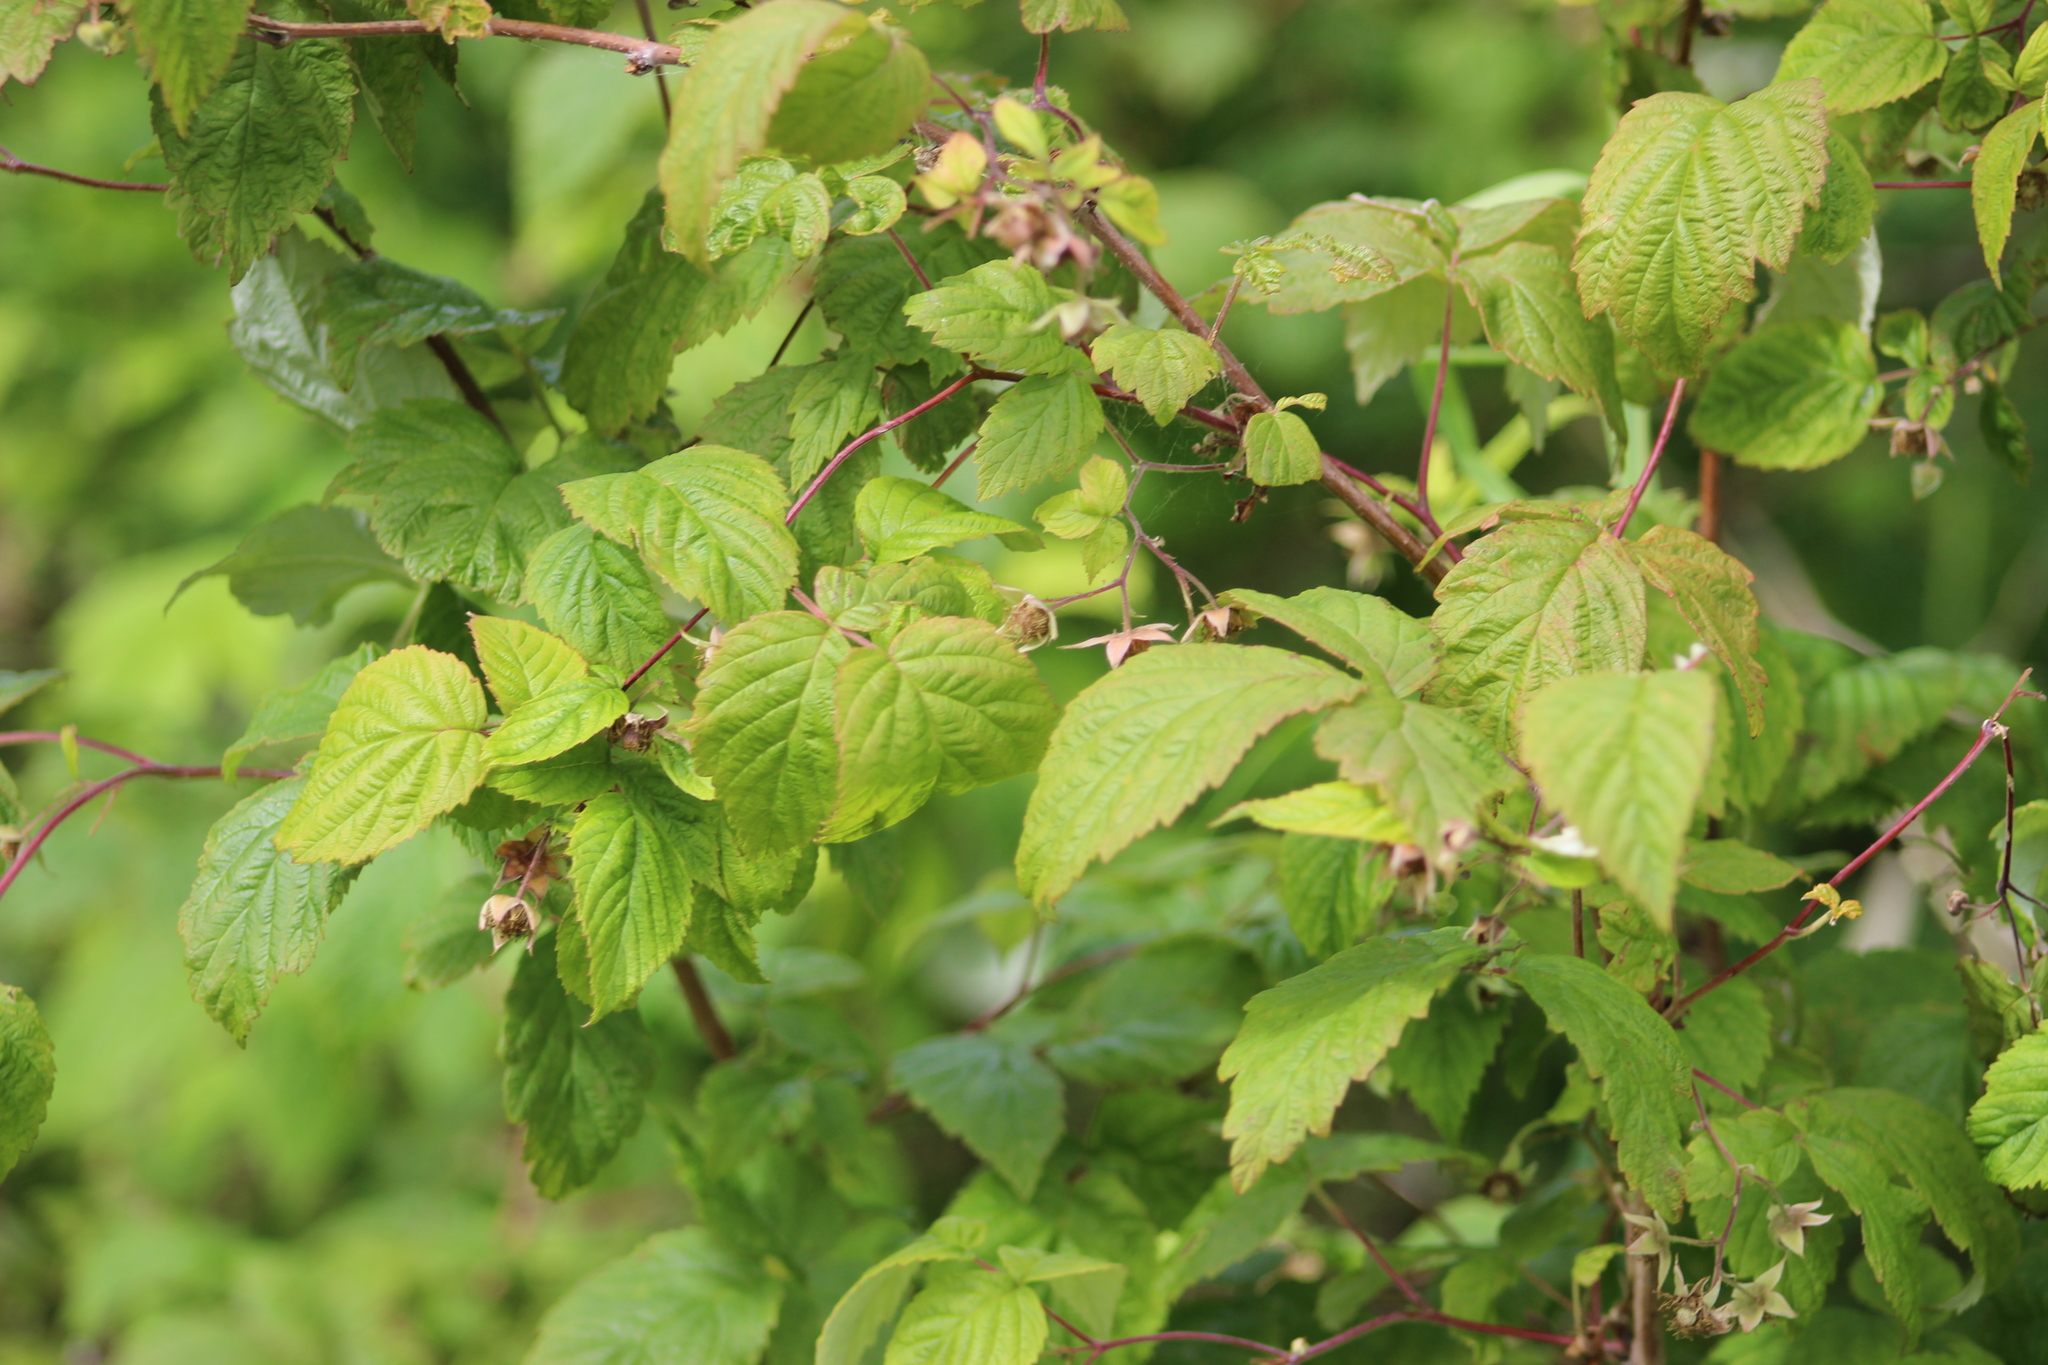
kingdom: Plantae
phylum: Tracheophyta
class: Magnoliopsida
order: Rosales
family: Rosaceae
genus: Rubus
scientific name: Rubus idaeus
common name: Raspberry
